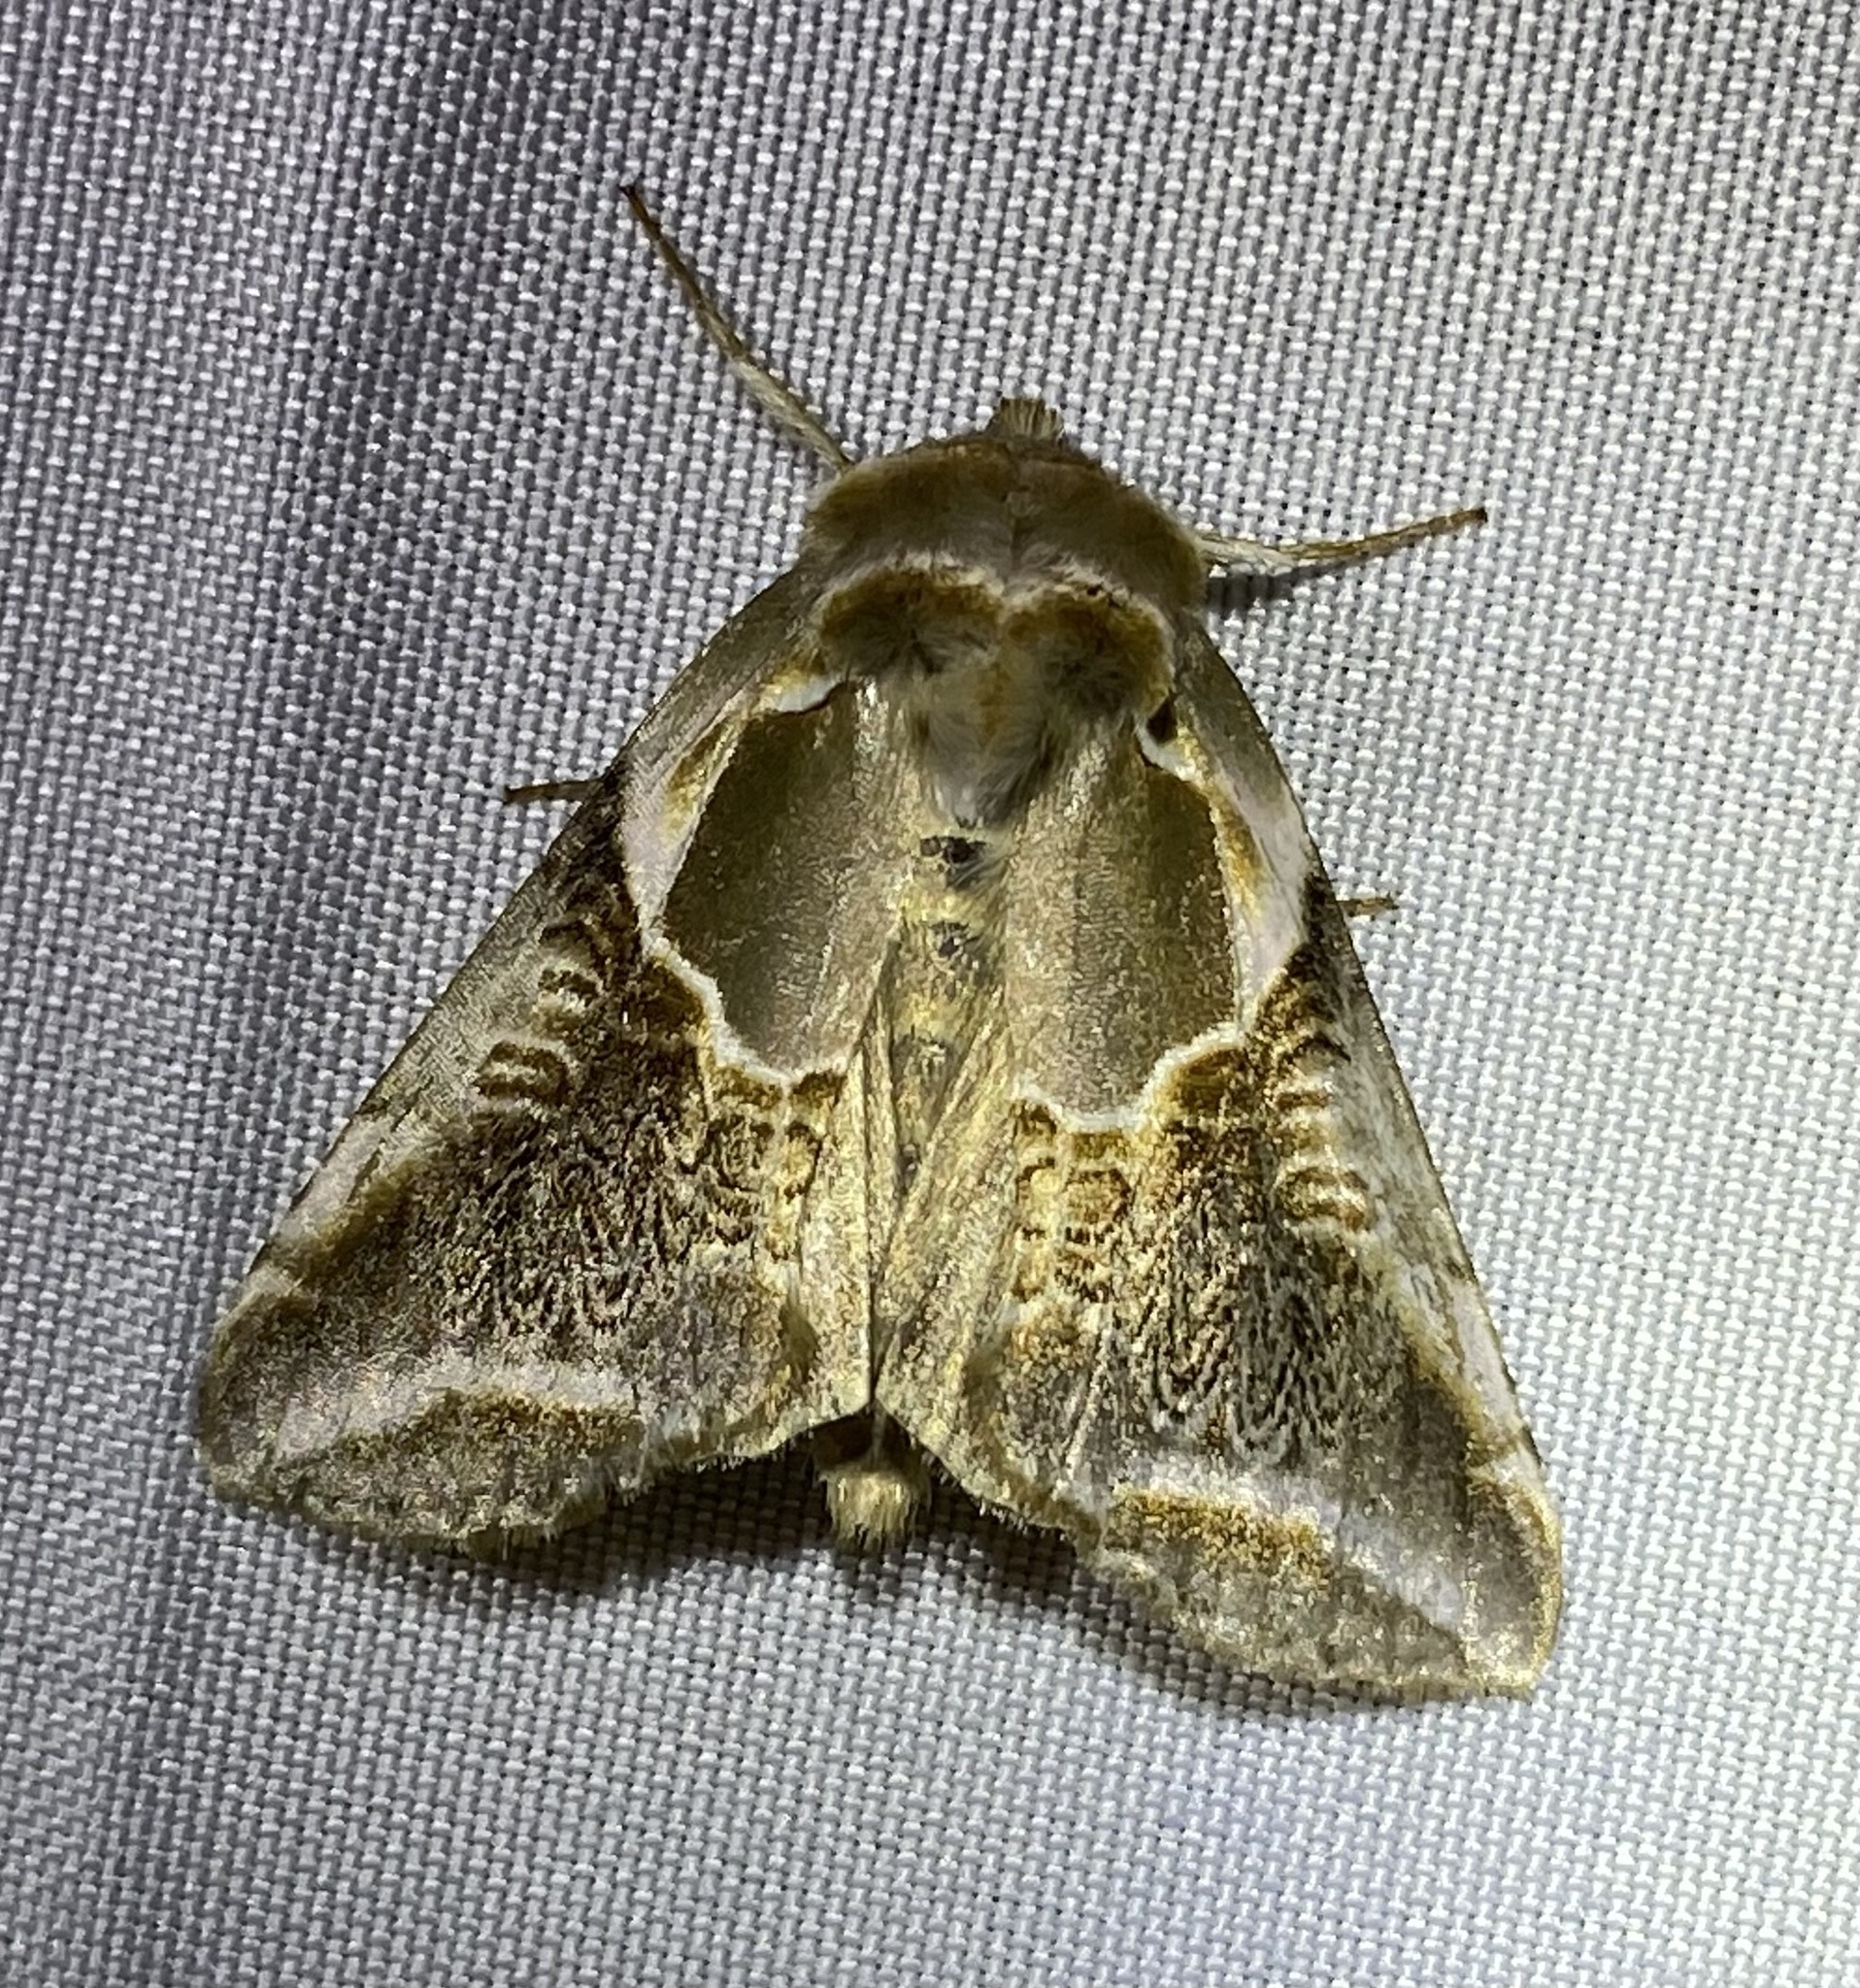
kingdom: Animalia
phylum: Arthropoda
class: Insecta
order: Lepidoptera
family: Drepanidae
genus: Habrosyne
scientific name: Habrosyne scripta
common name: Lettered habrosyne moth
